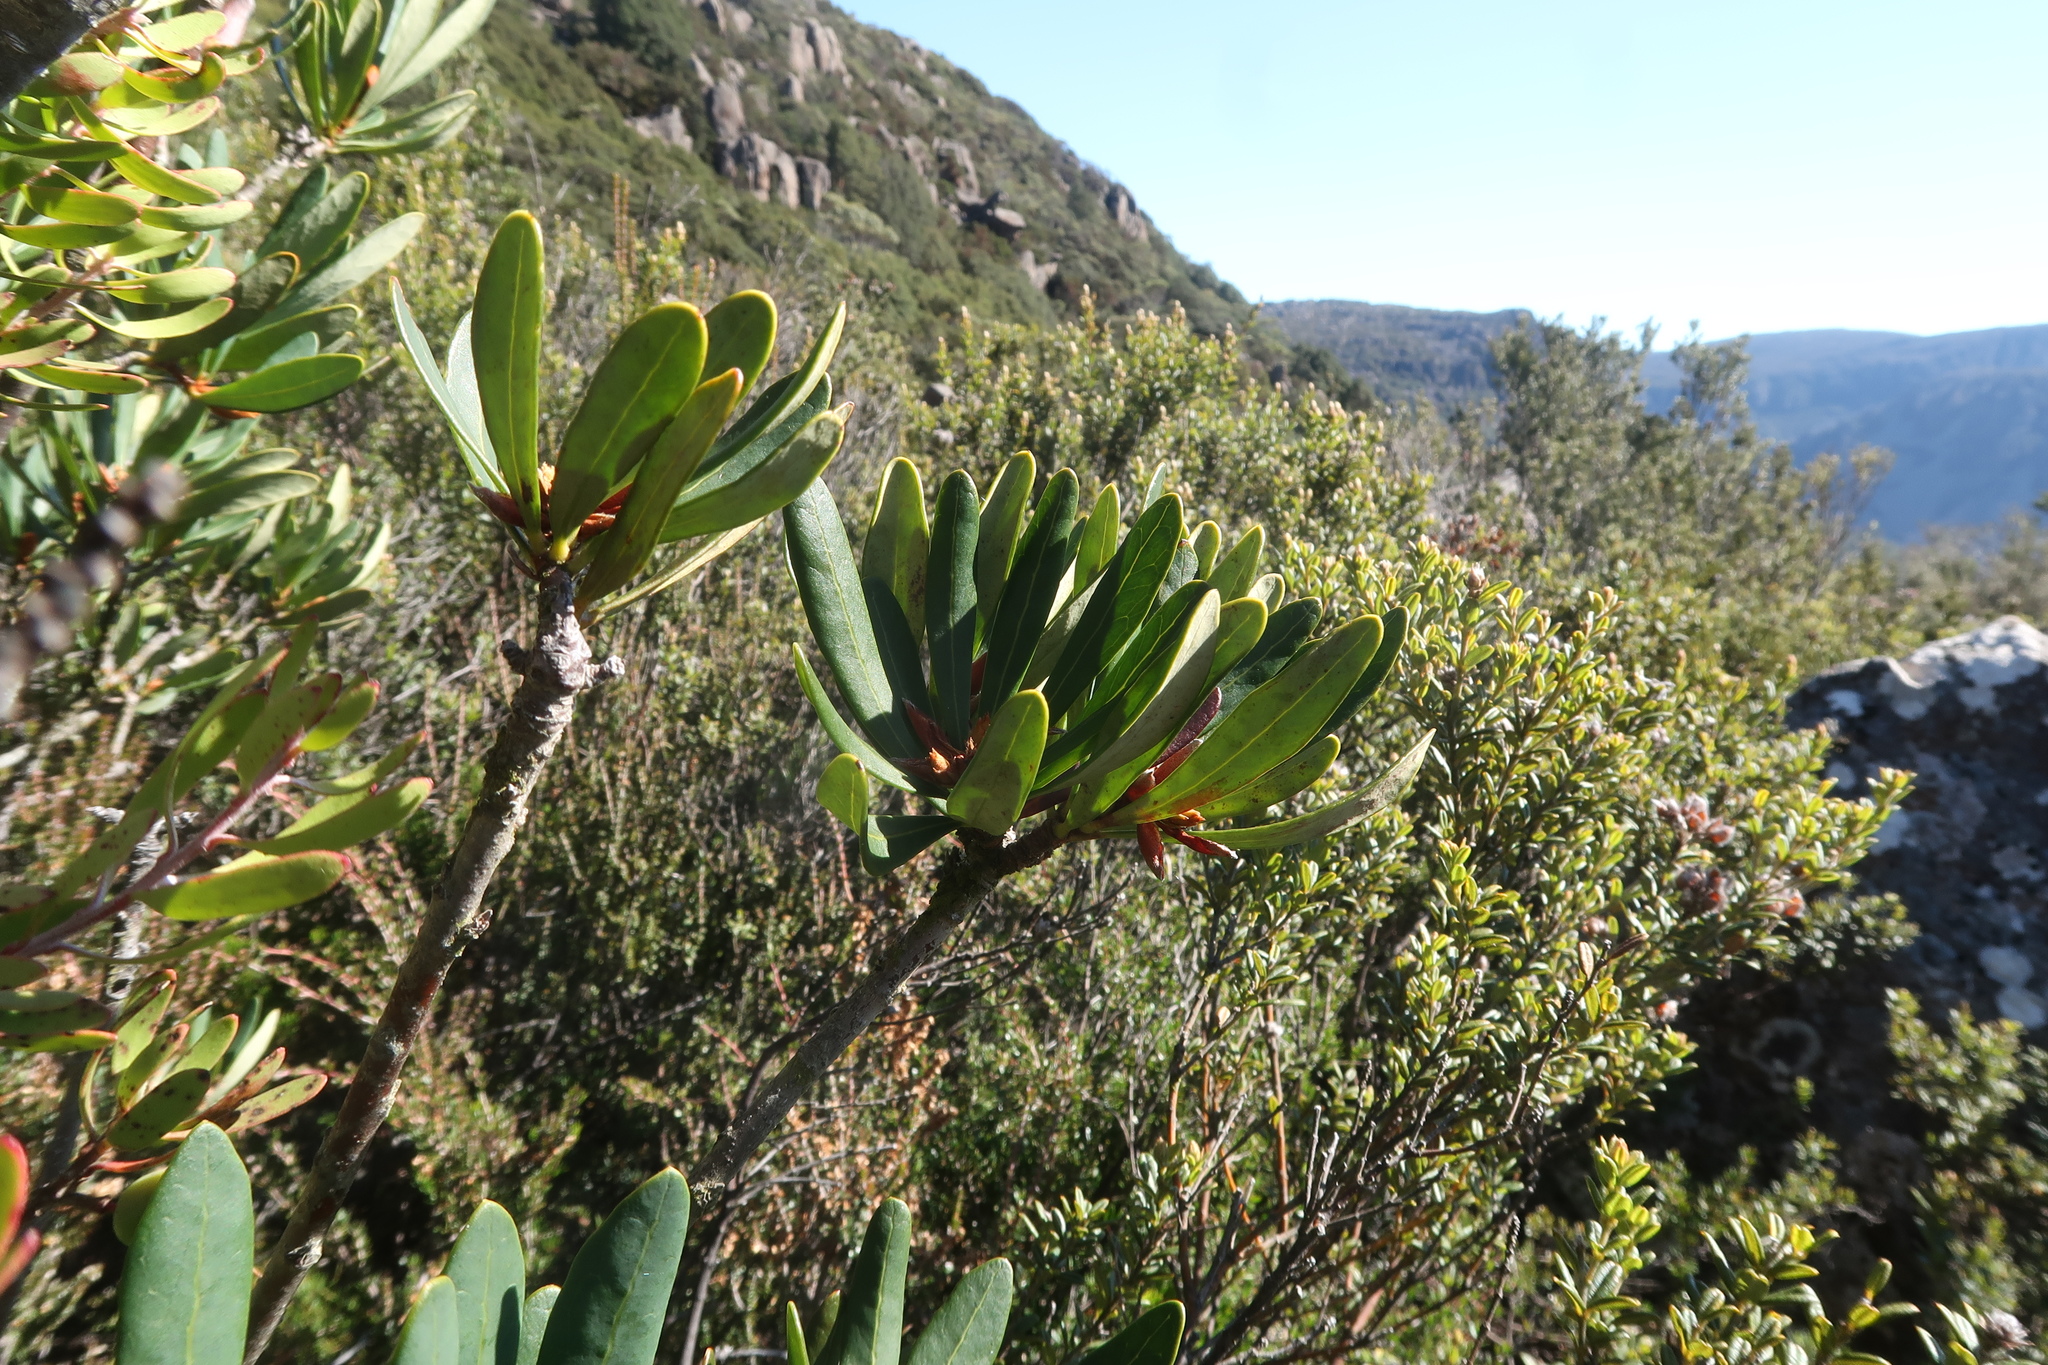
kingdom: Plantae
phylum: Tracheophyta
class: Magnoliopsida
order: Proteales
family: Proteaceae
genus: Telopea
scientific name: Telopea truncata
